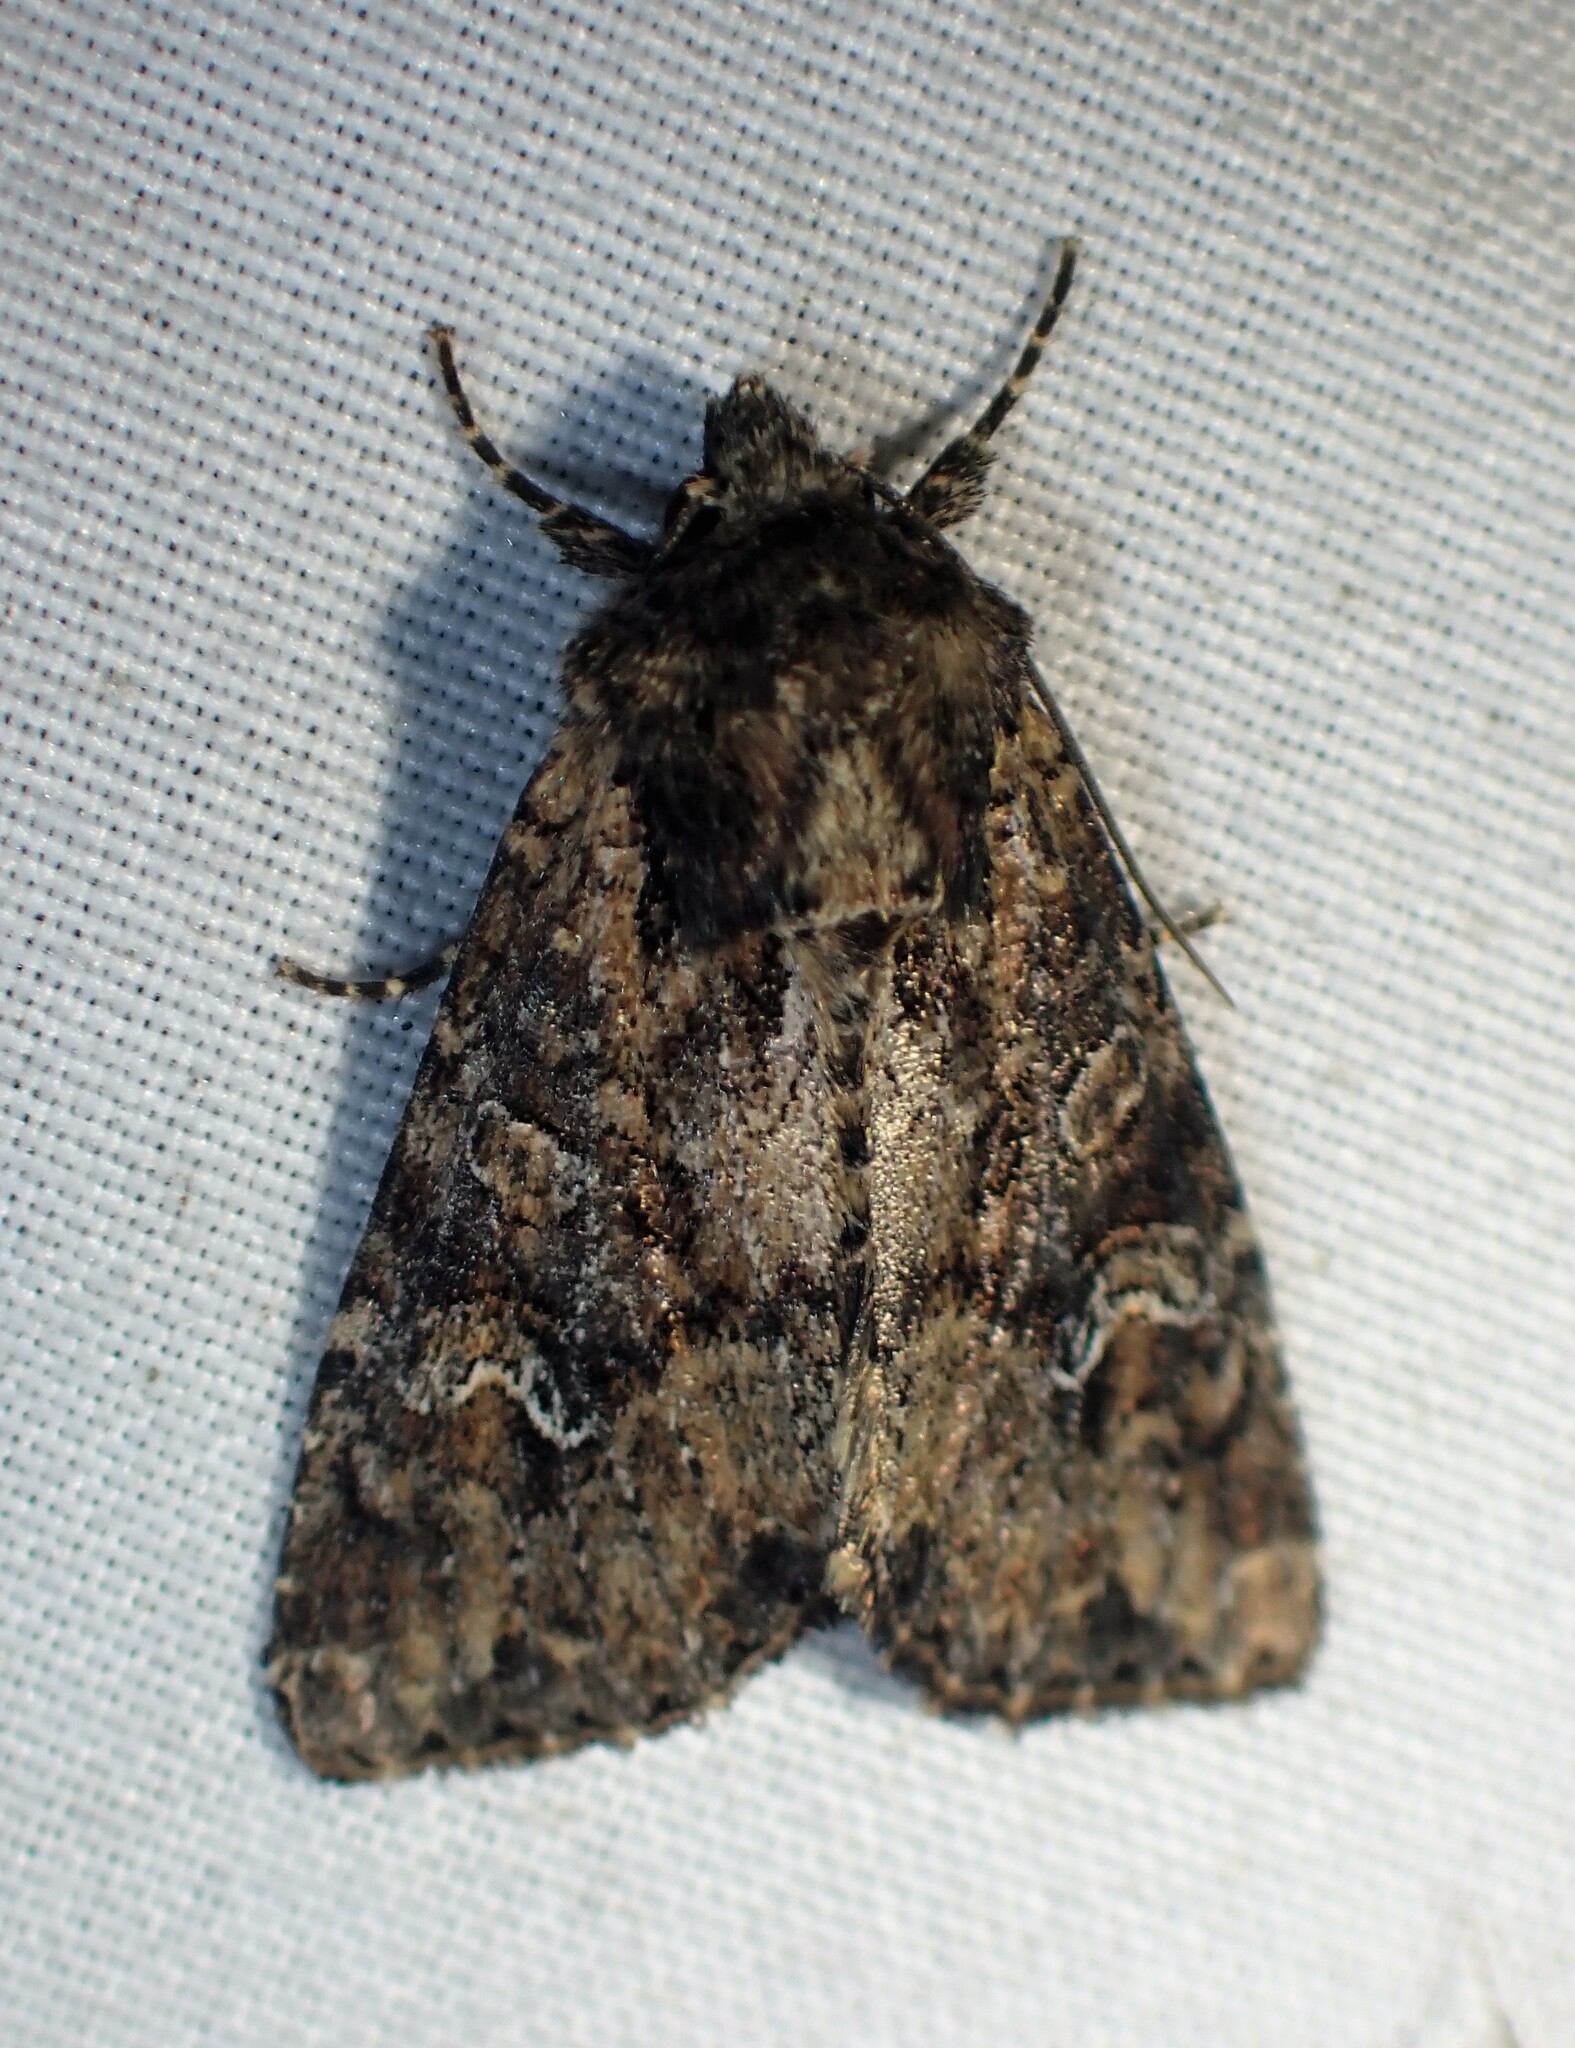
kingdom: Animalia
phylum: Arthropoda
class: Insecta
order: Lepidoptera
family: Noctuidae
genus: Apamea
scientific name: Apamea unanimis
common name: Small clouded brindle
